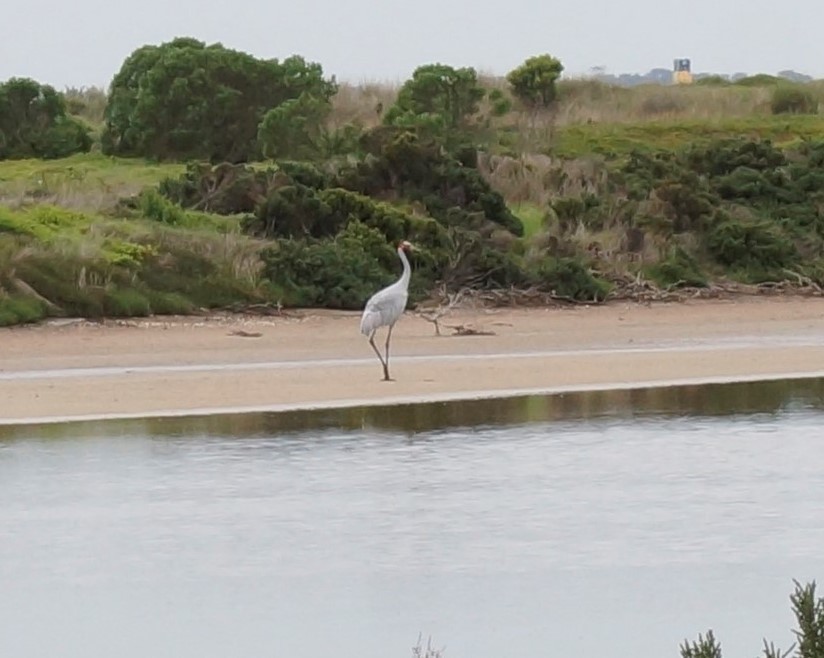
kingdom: Animalia
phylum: Chordata
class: Aves
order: Gruiformes
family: Gruidae
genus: Grus
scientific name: Grus rubicunda
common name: Brolga
